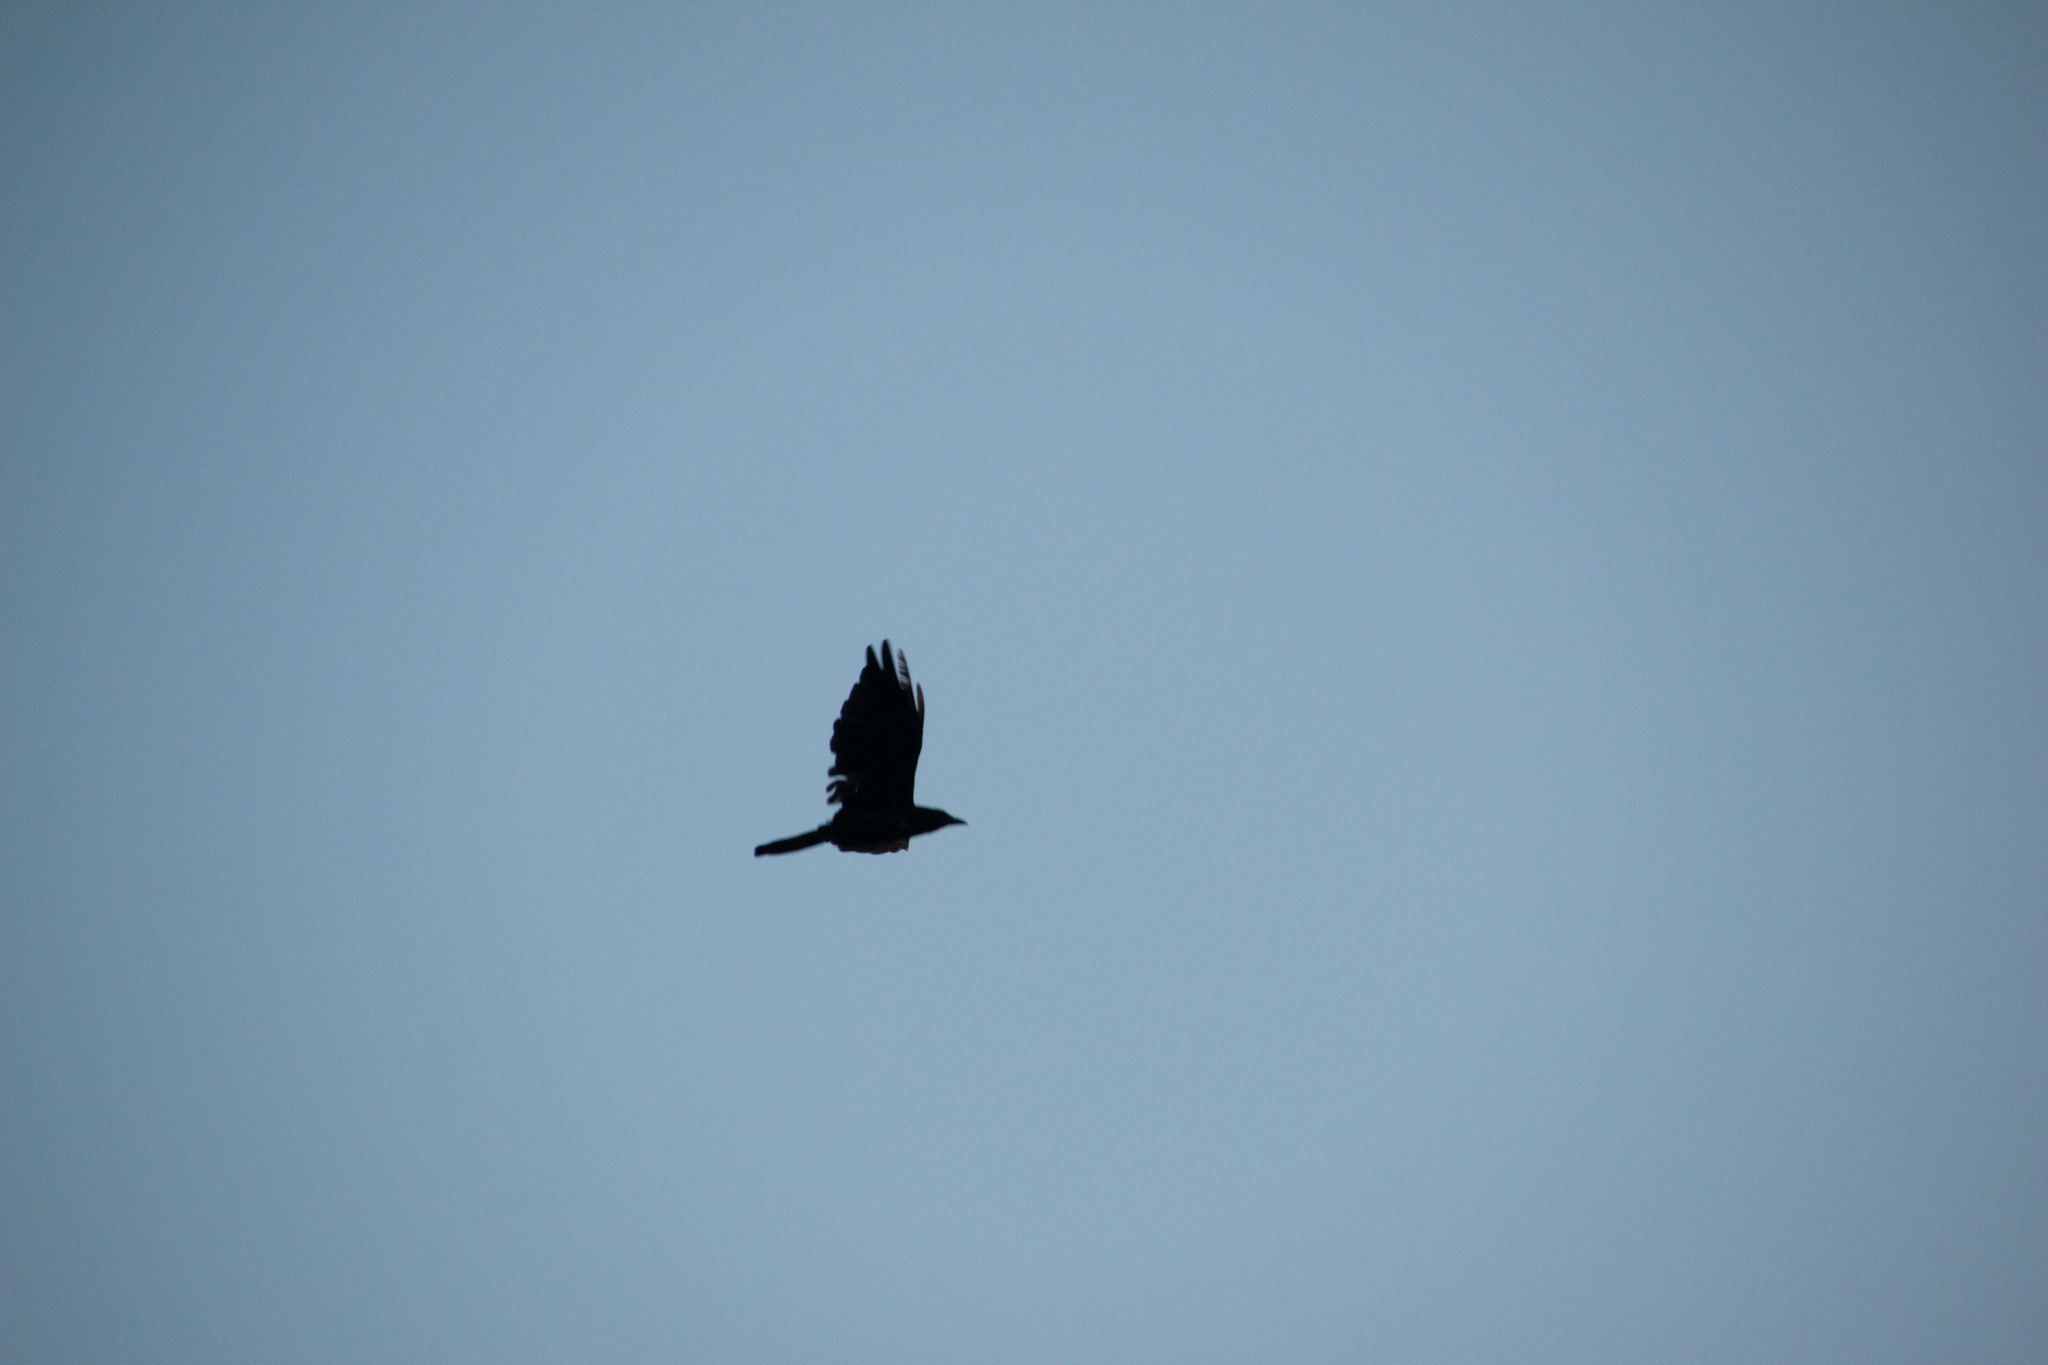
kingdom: Animalia
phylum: Chordata
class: Aves
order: Passeriformes
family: Corvidae
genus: Corvus
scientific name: Corvus brachyrhynchos
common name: American crow
